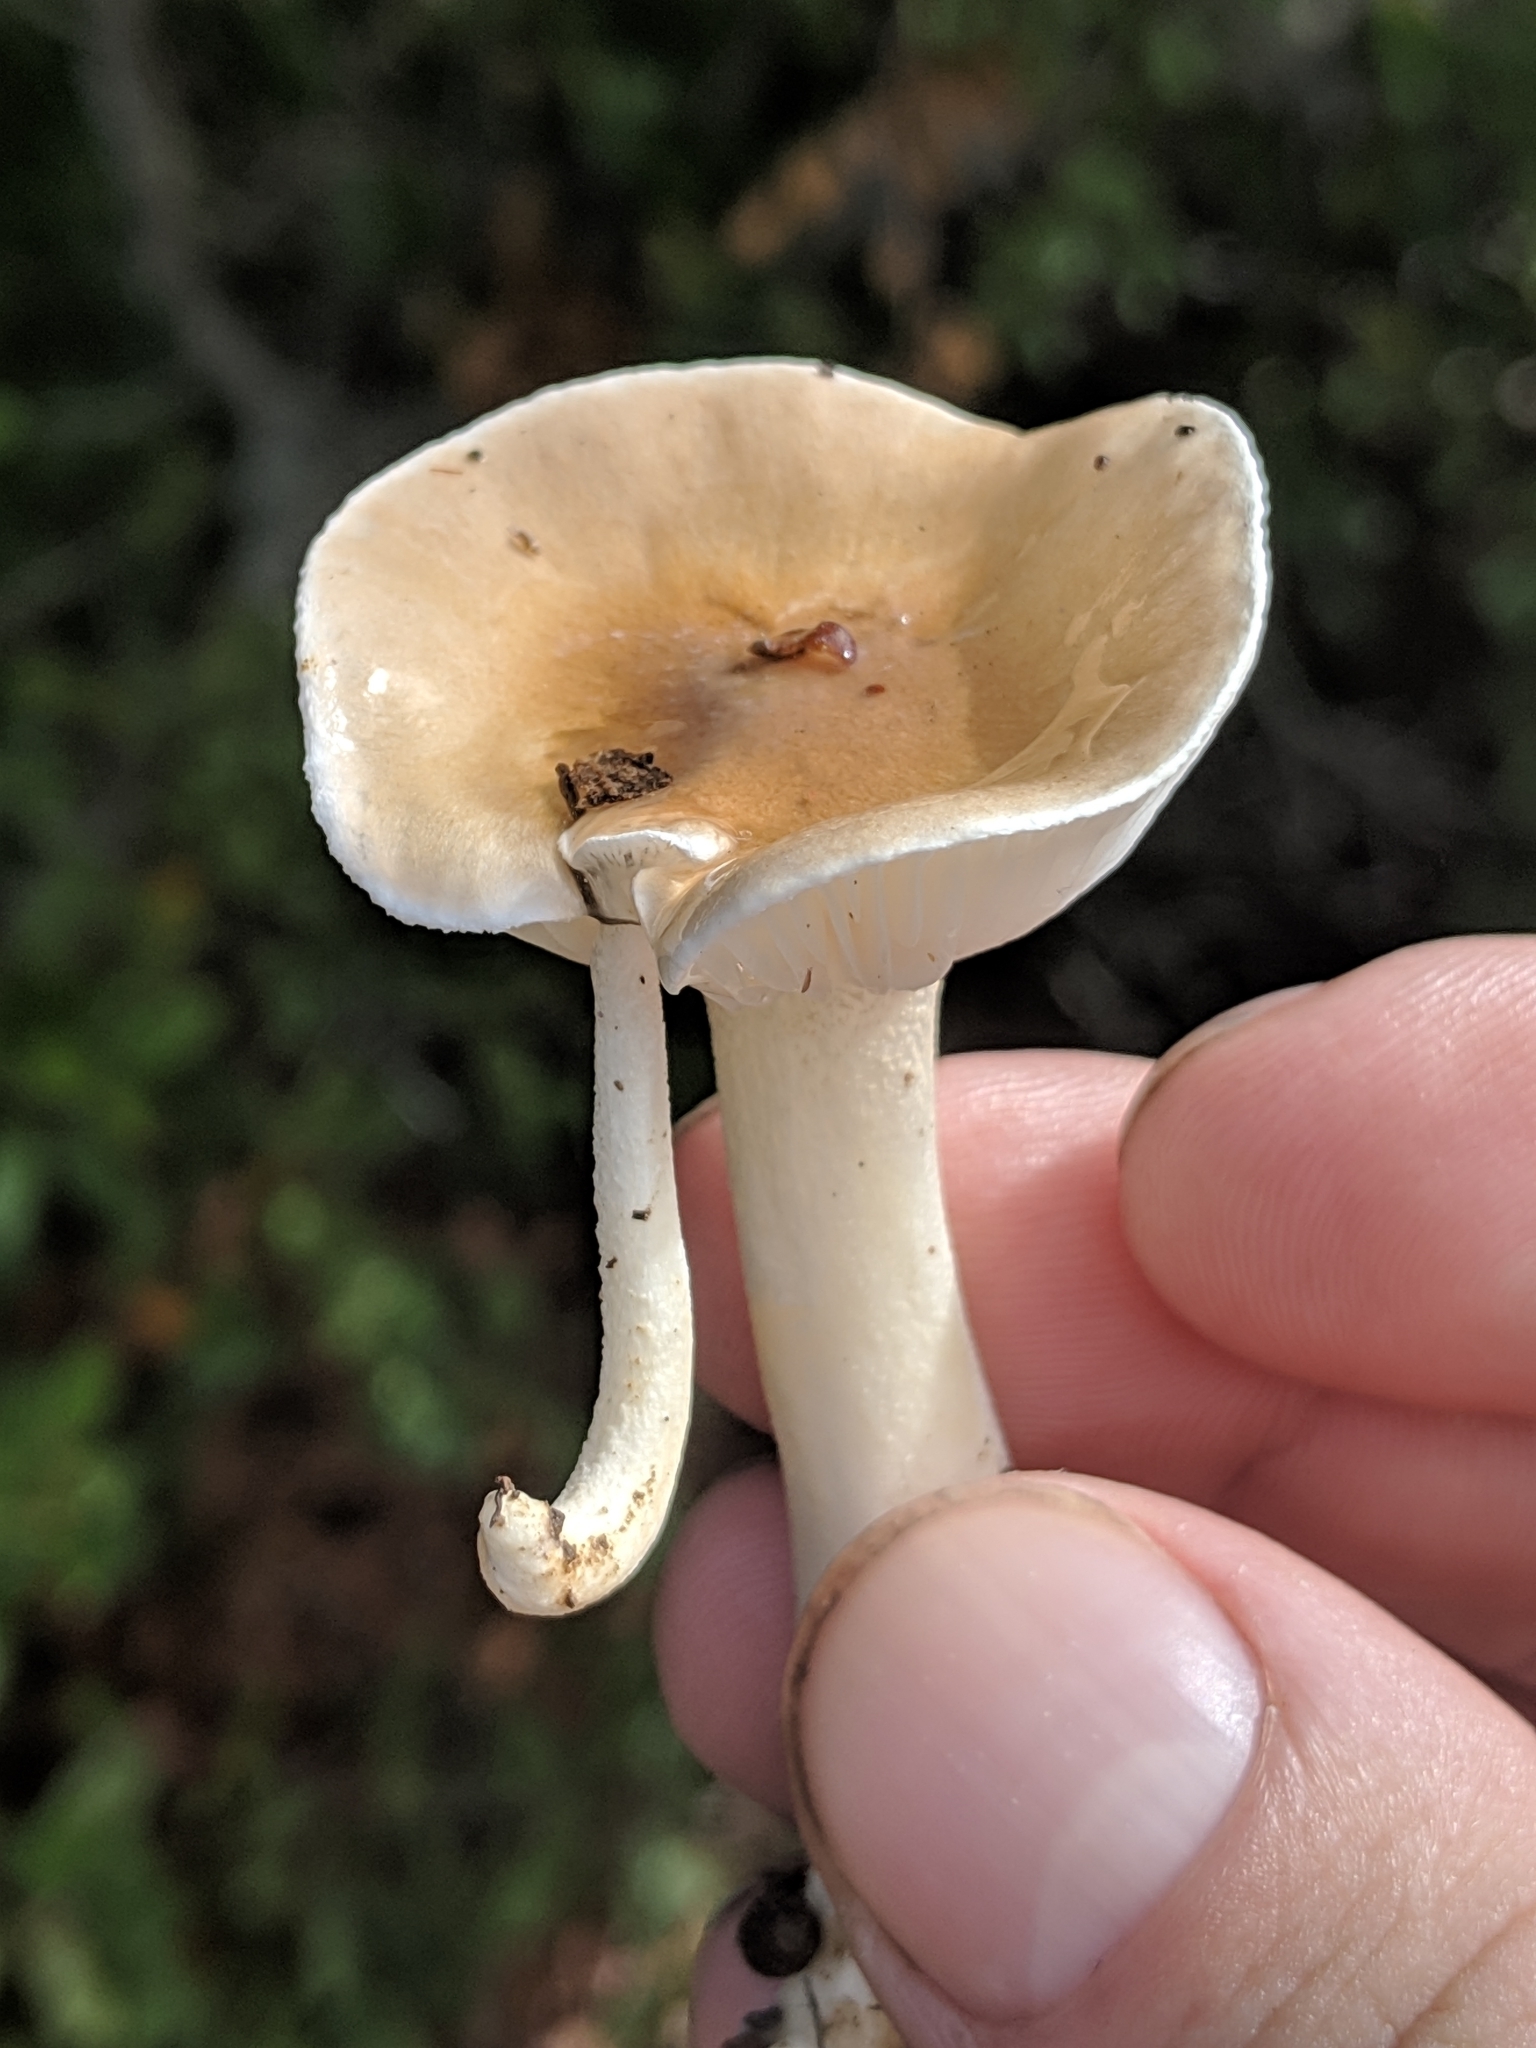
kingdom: Fungi
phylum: Basidiomycota
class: Agaricomycetes
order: Agaricales
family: Hygrophoraceae
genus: Hygrophorus
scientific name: Hygrophorus roseobrunneus
